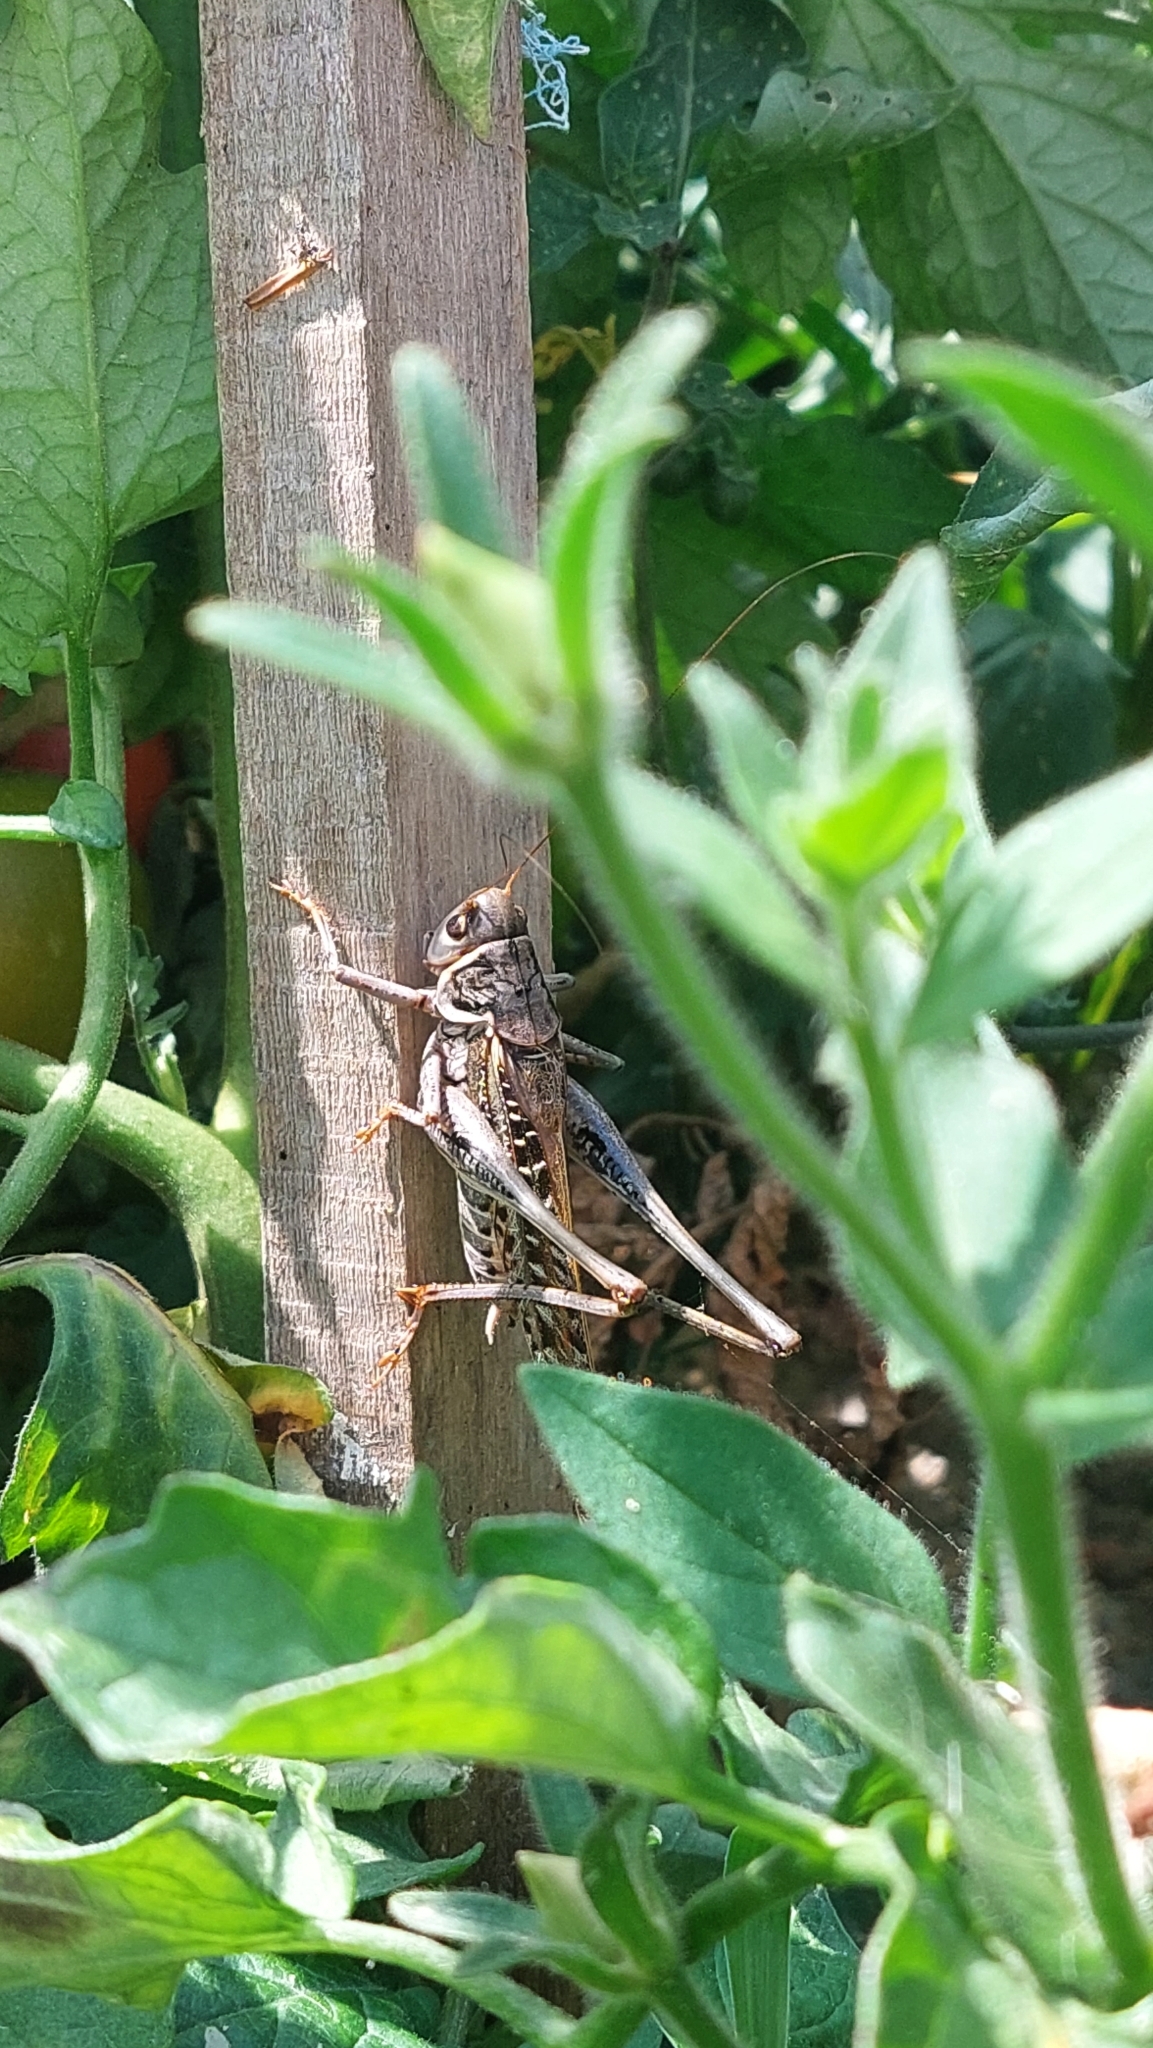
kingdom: Animalia
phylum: Arthropoda
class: Insecta
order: Orthoptera
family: Tettigoniidae
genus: Decticus
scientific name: Decticus albifrons
